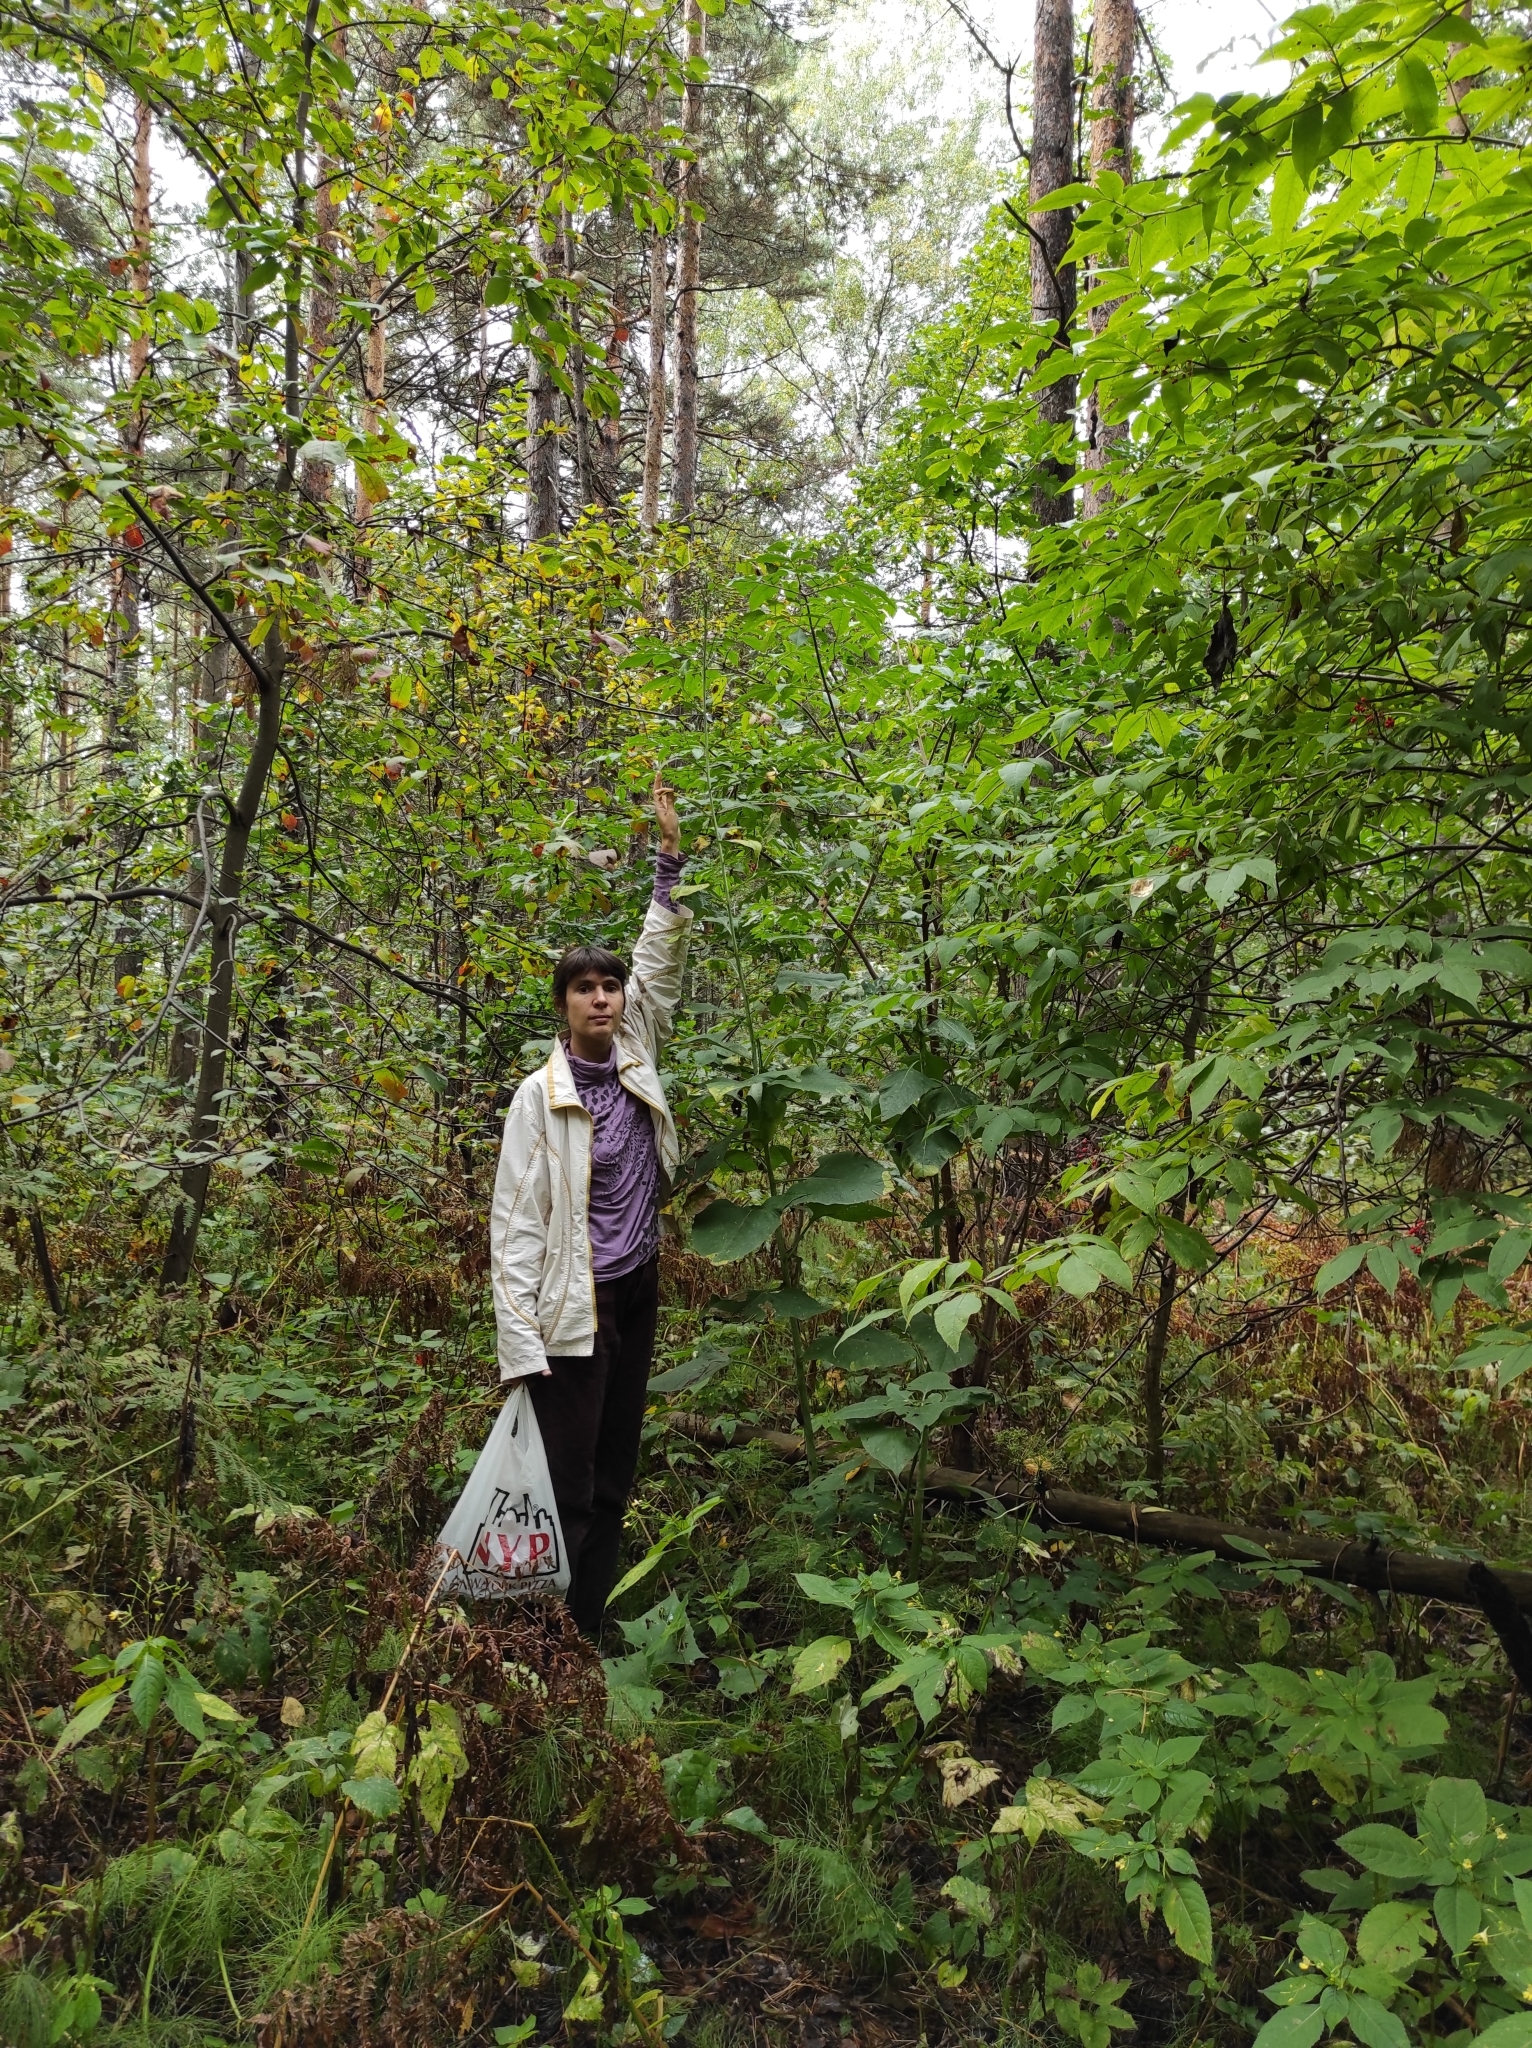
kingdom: Plantae
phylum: Tracheophyta
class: Magnoliopsida
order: Asterales
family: Asteraceae
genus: Parasenecio
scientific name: Parasenecio hastatus
